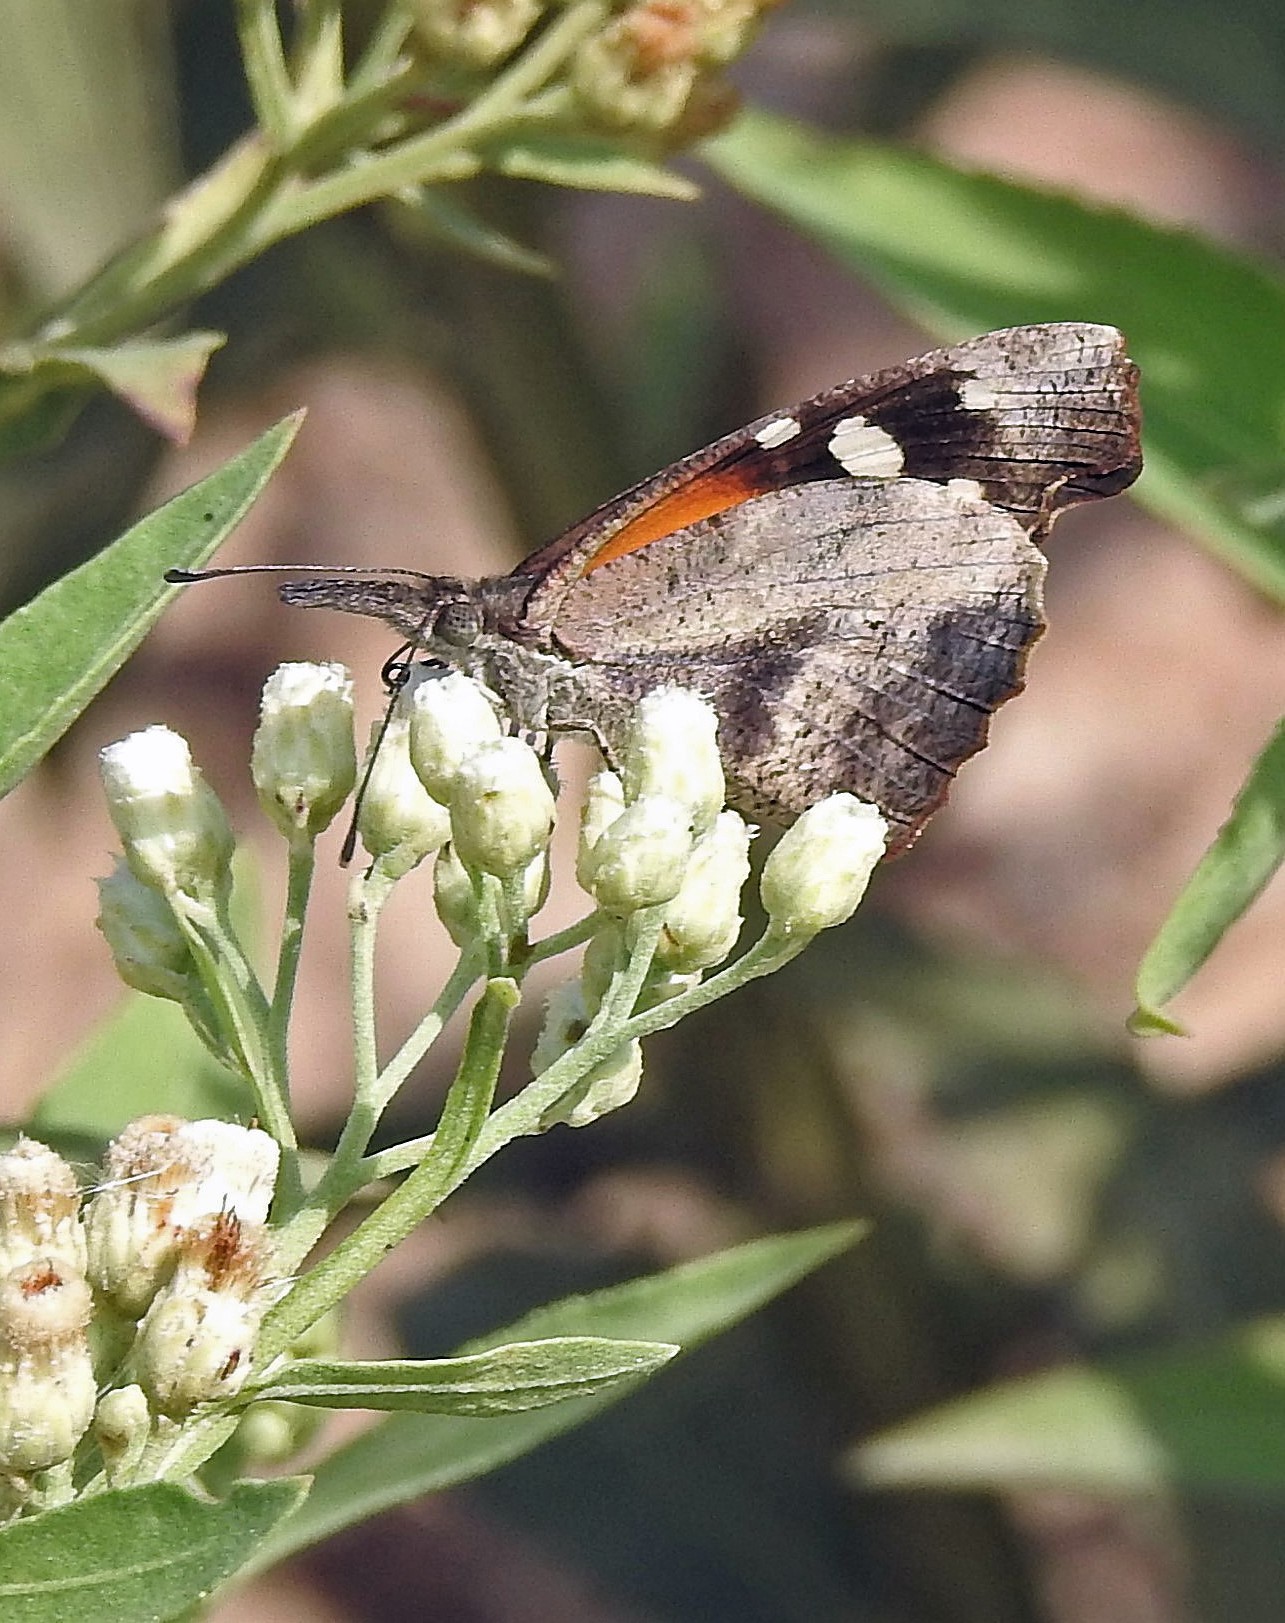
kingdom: Animalia
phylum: Arthropoda
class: Insecta
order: Lepidoptera
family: Nymphalidae
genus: Libytheana
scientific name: Libytheana carinenta
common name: American snout
